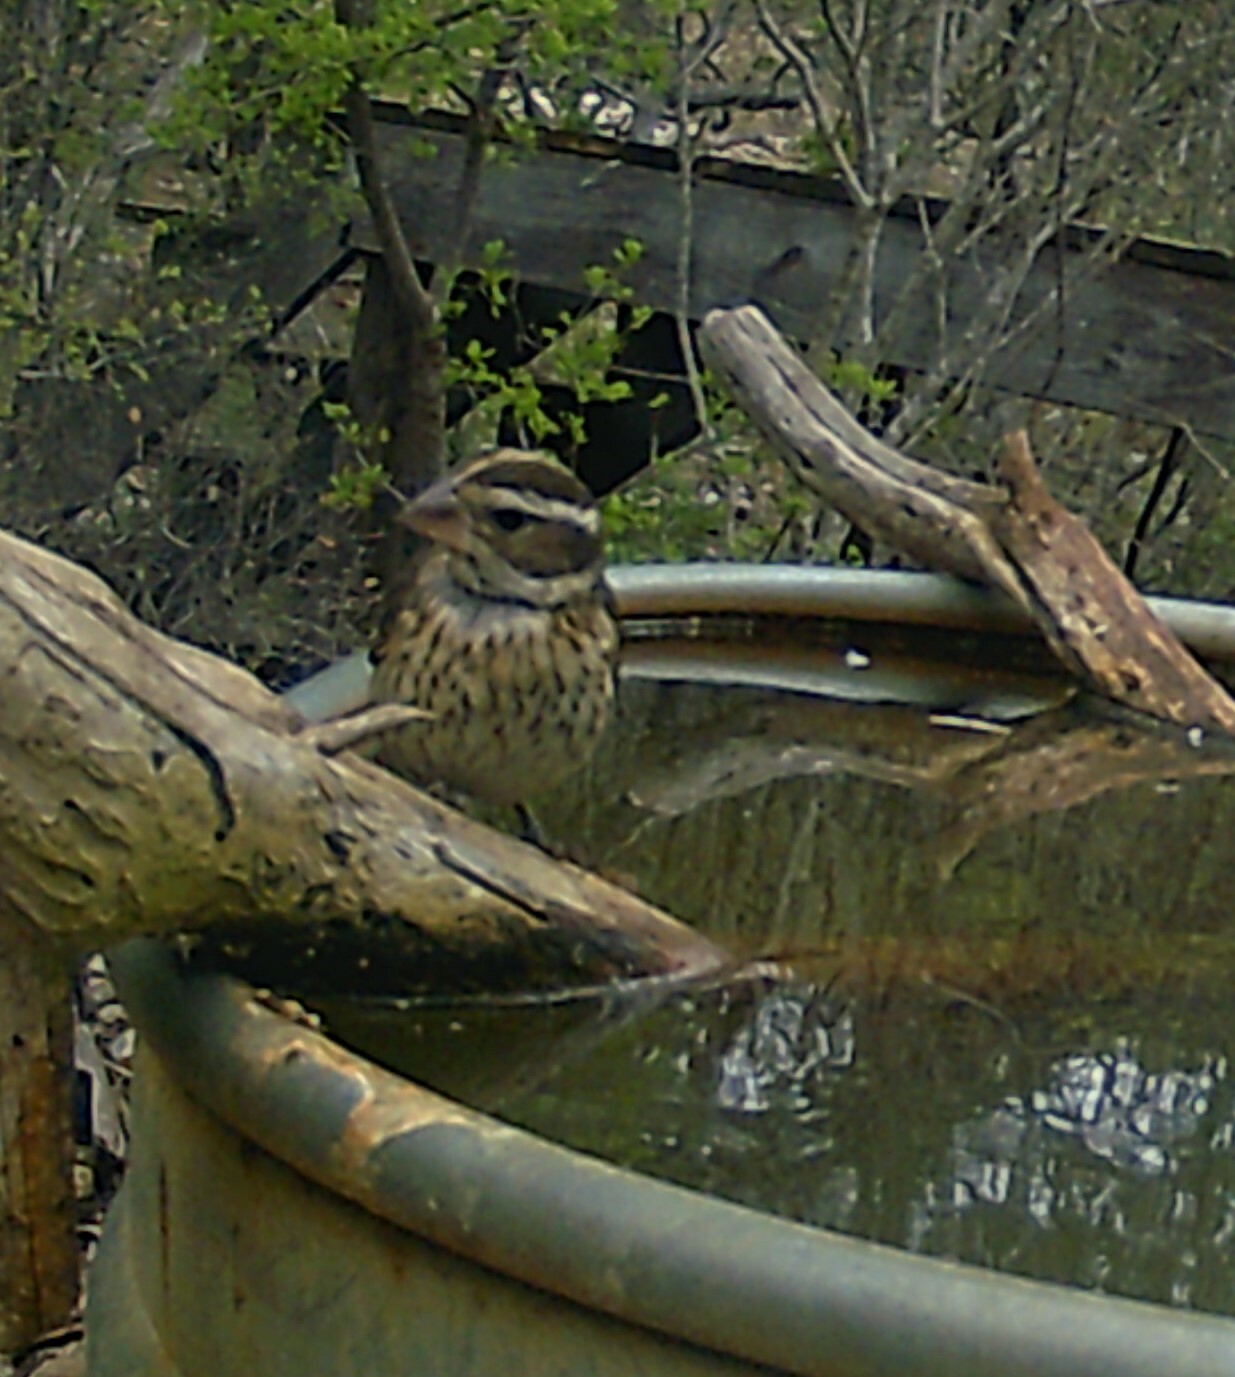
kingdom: Animalia
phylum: Chordata
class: Aves
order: Passeriformes
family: Cardinalidae
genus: Pheucticus
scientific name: Pheucticus ludovicianus
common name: Rose-breasted grosbeak
